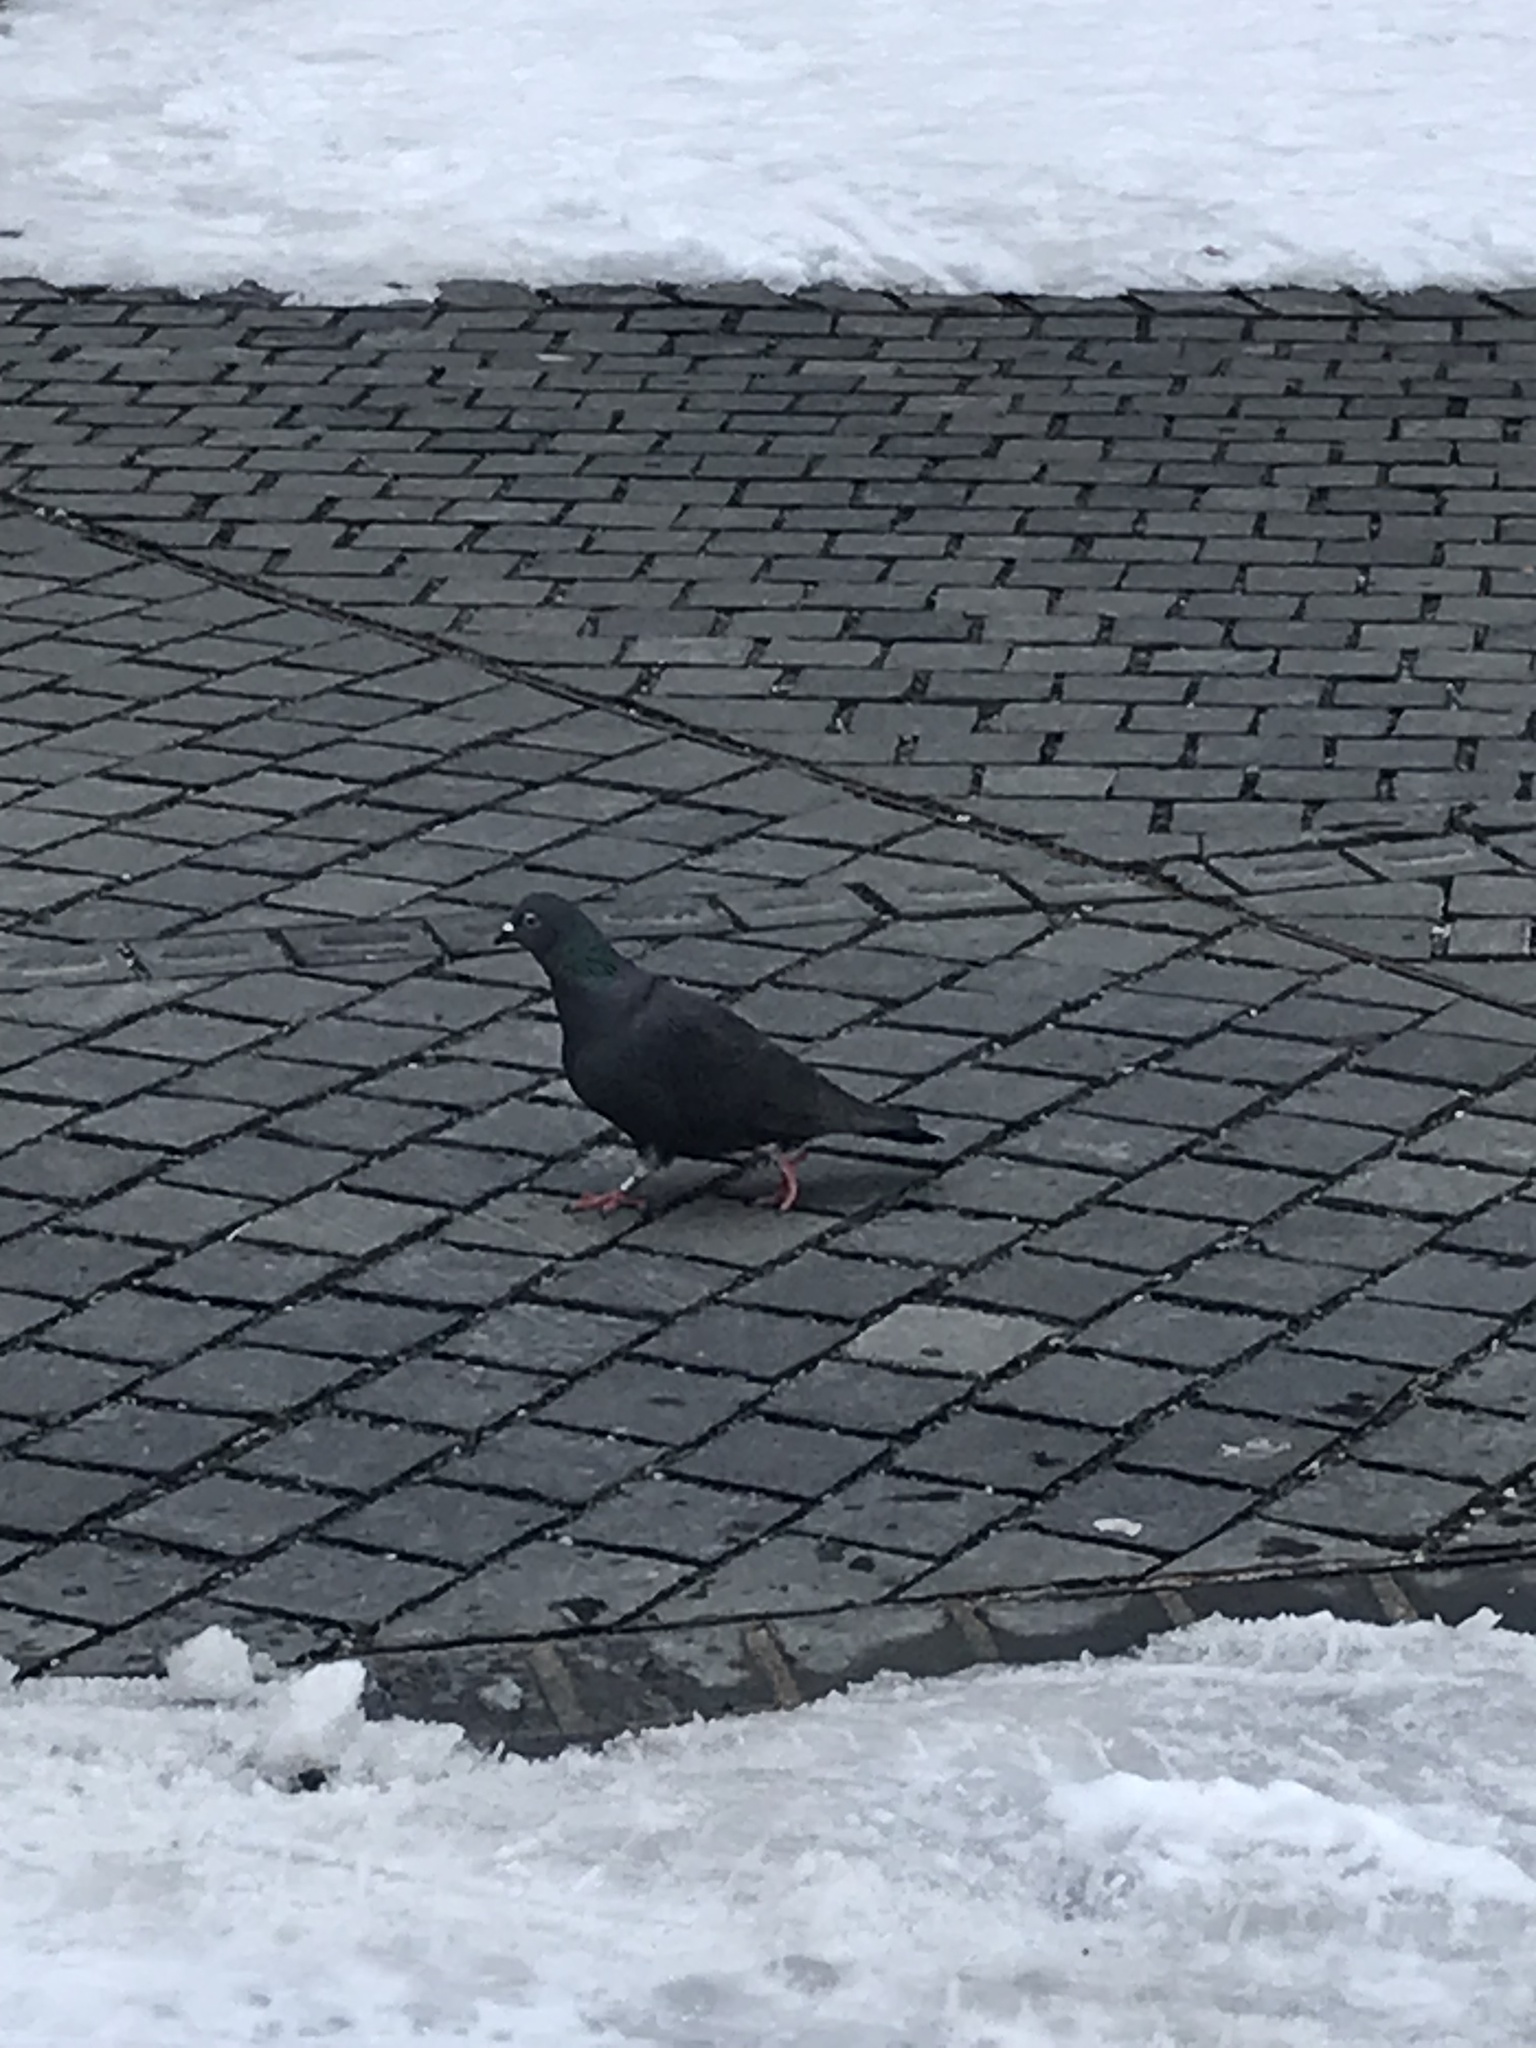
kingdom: Animalia
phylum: Chordata
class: Aves
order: Columbiformes
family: Columbidae
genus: Columba
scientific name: Columba livia
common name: Rock pigeon
